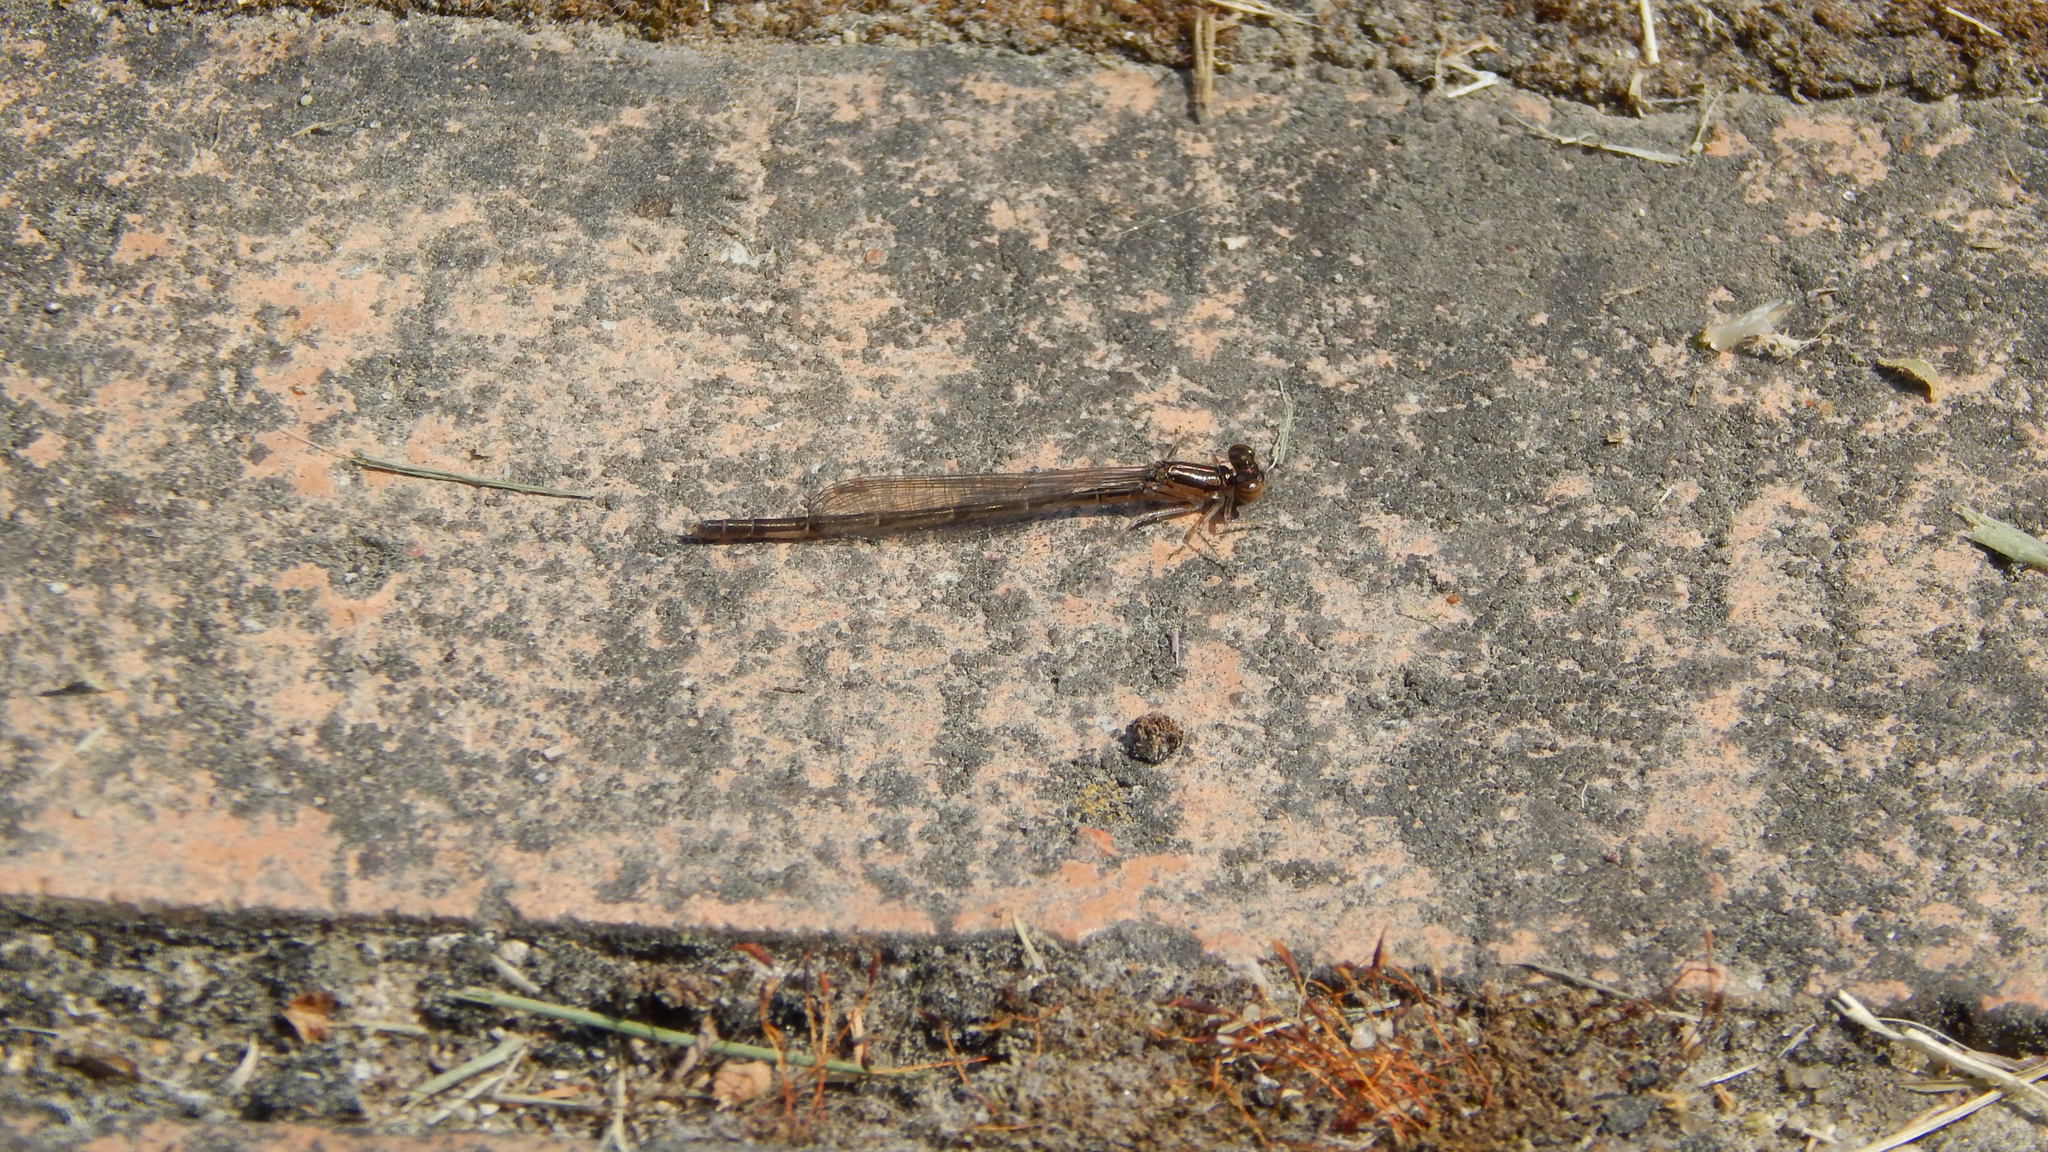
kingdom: Animalia
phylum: Arthropoda
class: Insecta
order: Odonata
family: Coenagrionidae
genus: Ischnura
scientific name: Ischnura posita
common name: Fragile forktail
